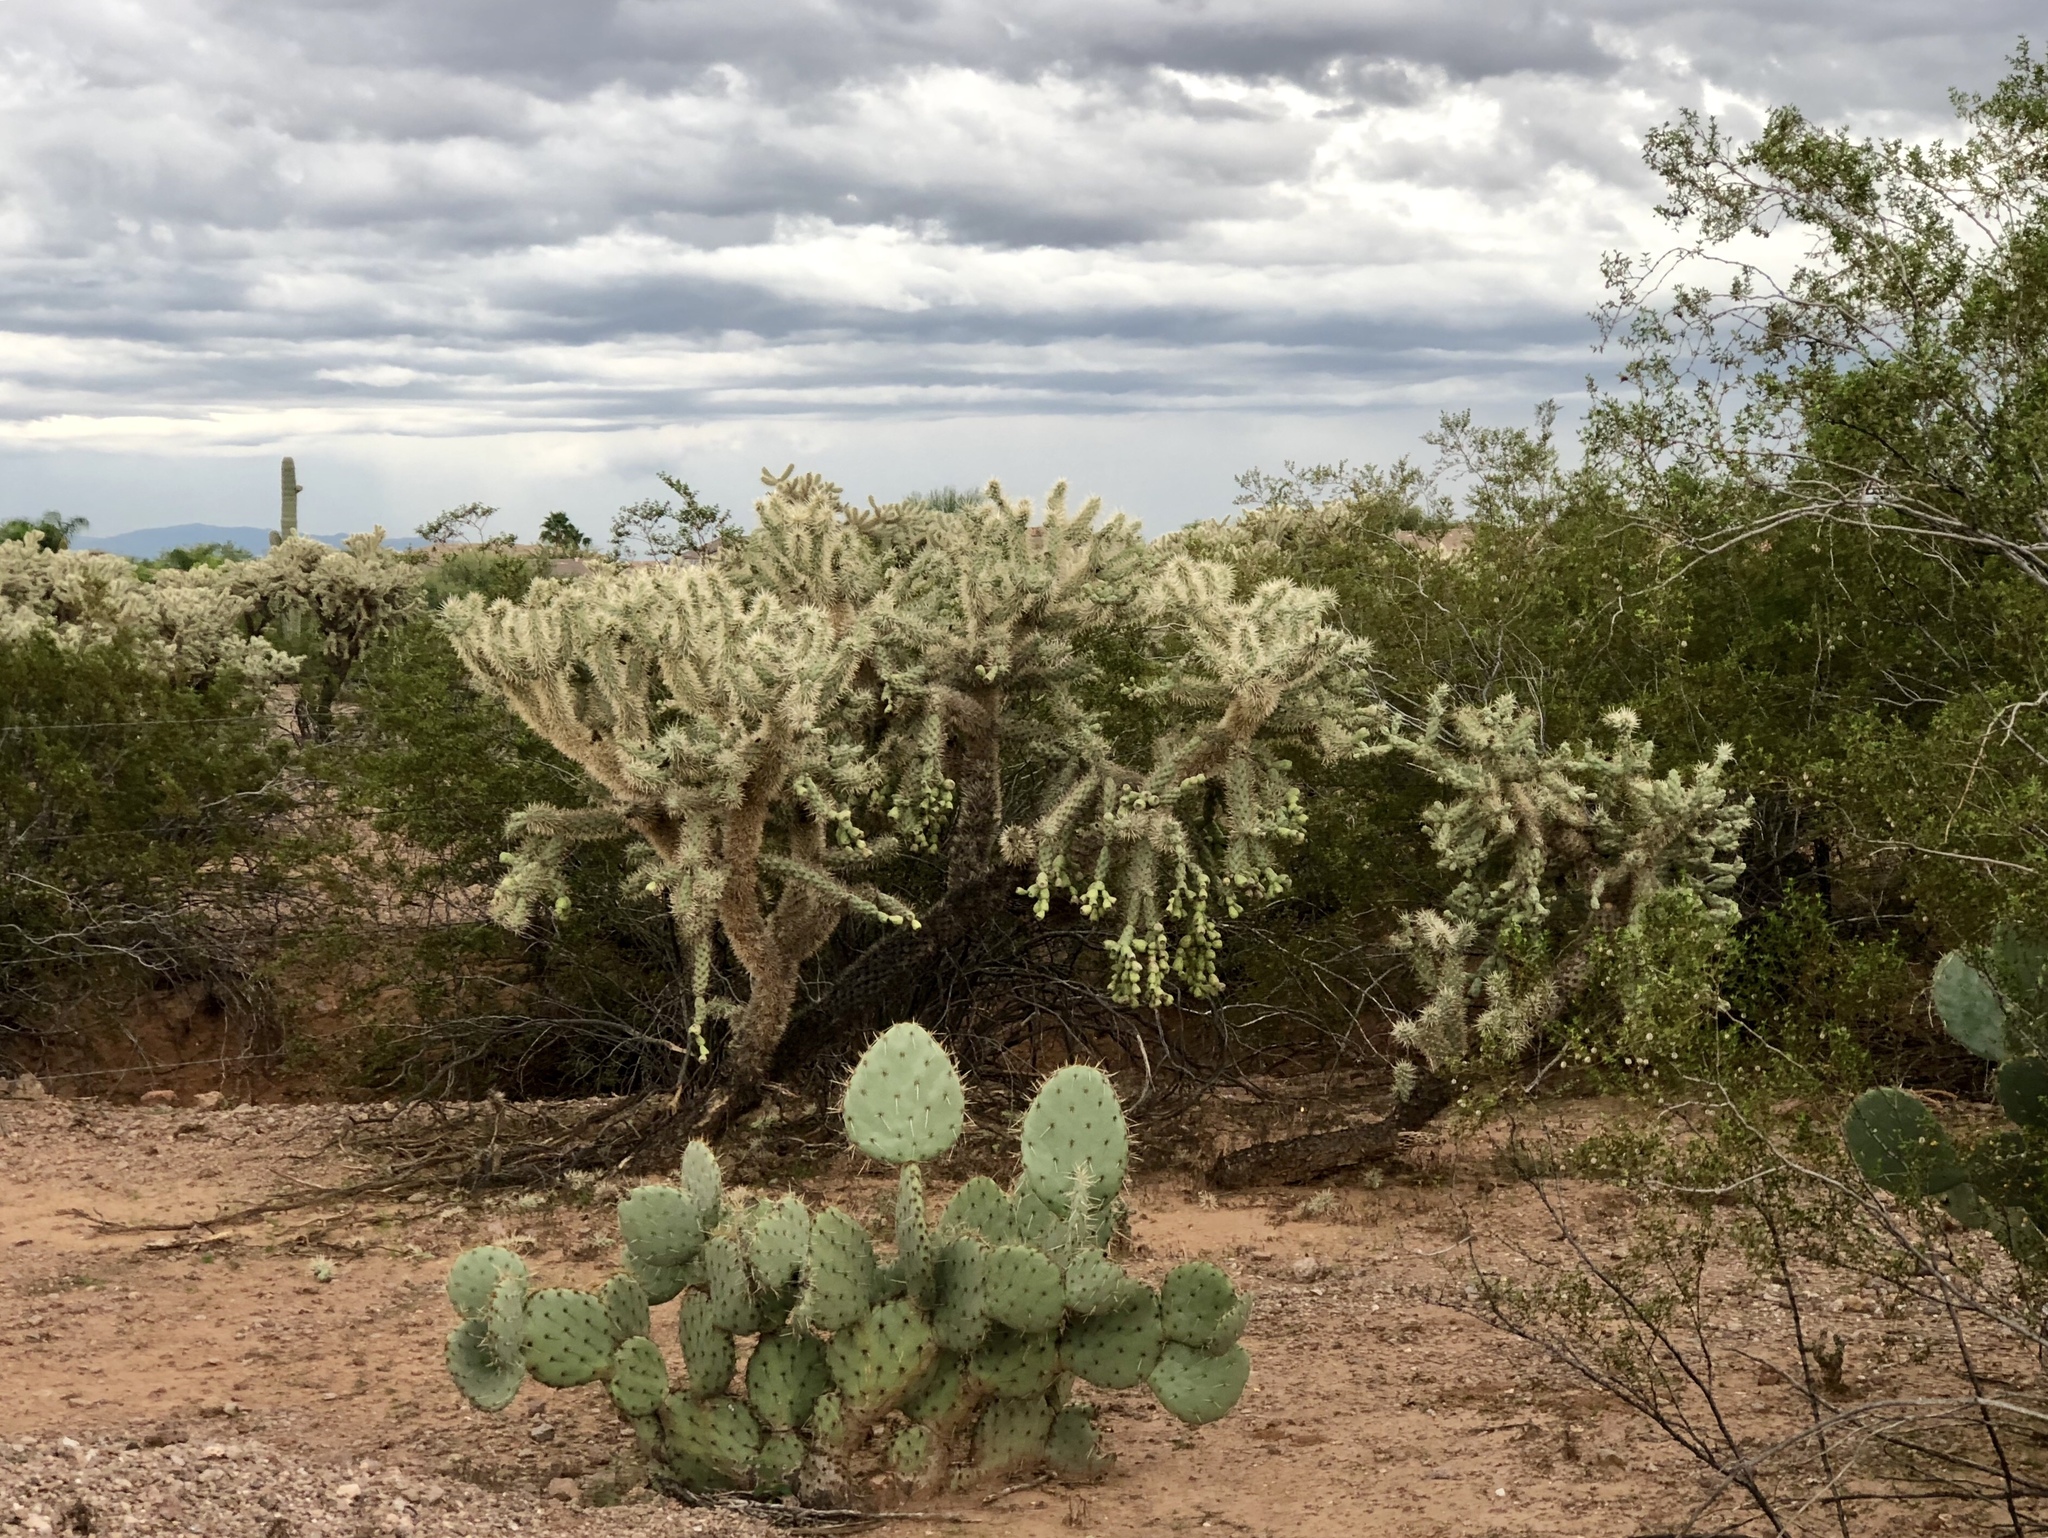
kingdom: Plantae
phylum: Tracheophyta
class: Magnoliopsida
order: Caryophyllales
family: Cactaceae
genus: Cylindropuntia
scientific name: Cylindropuntia fulgida
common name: Jumping cholla
